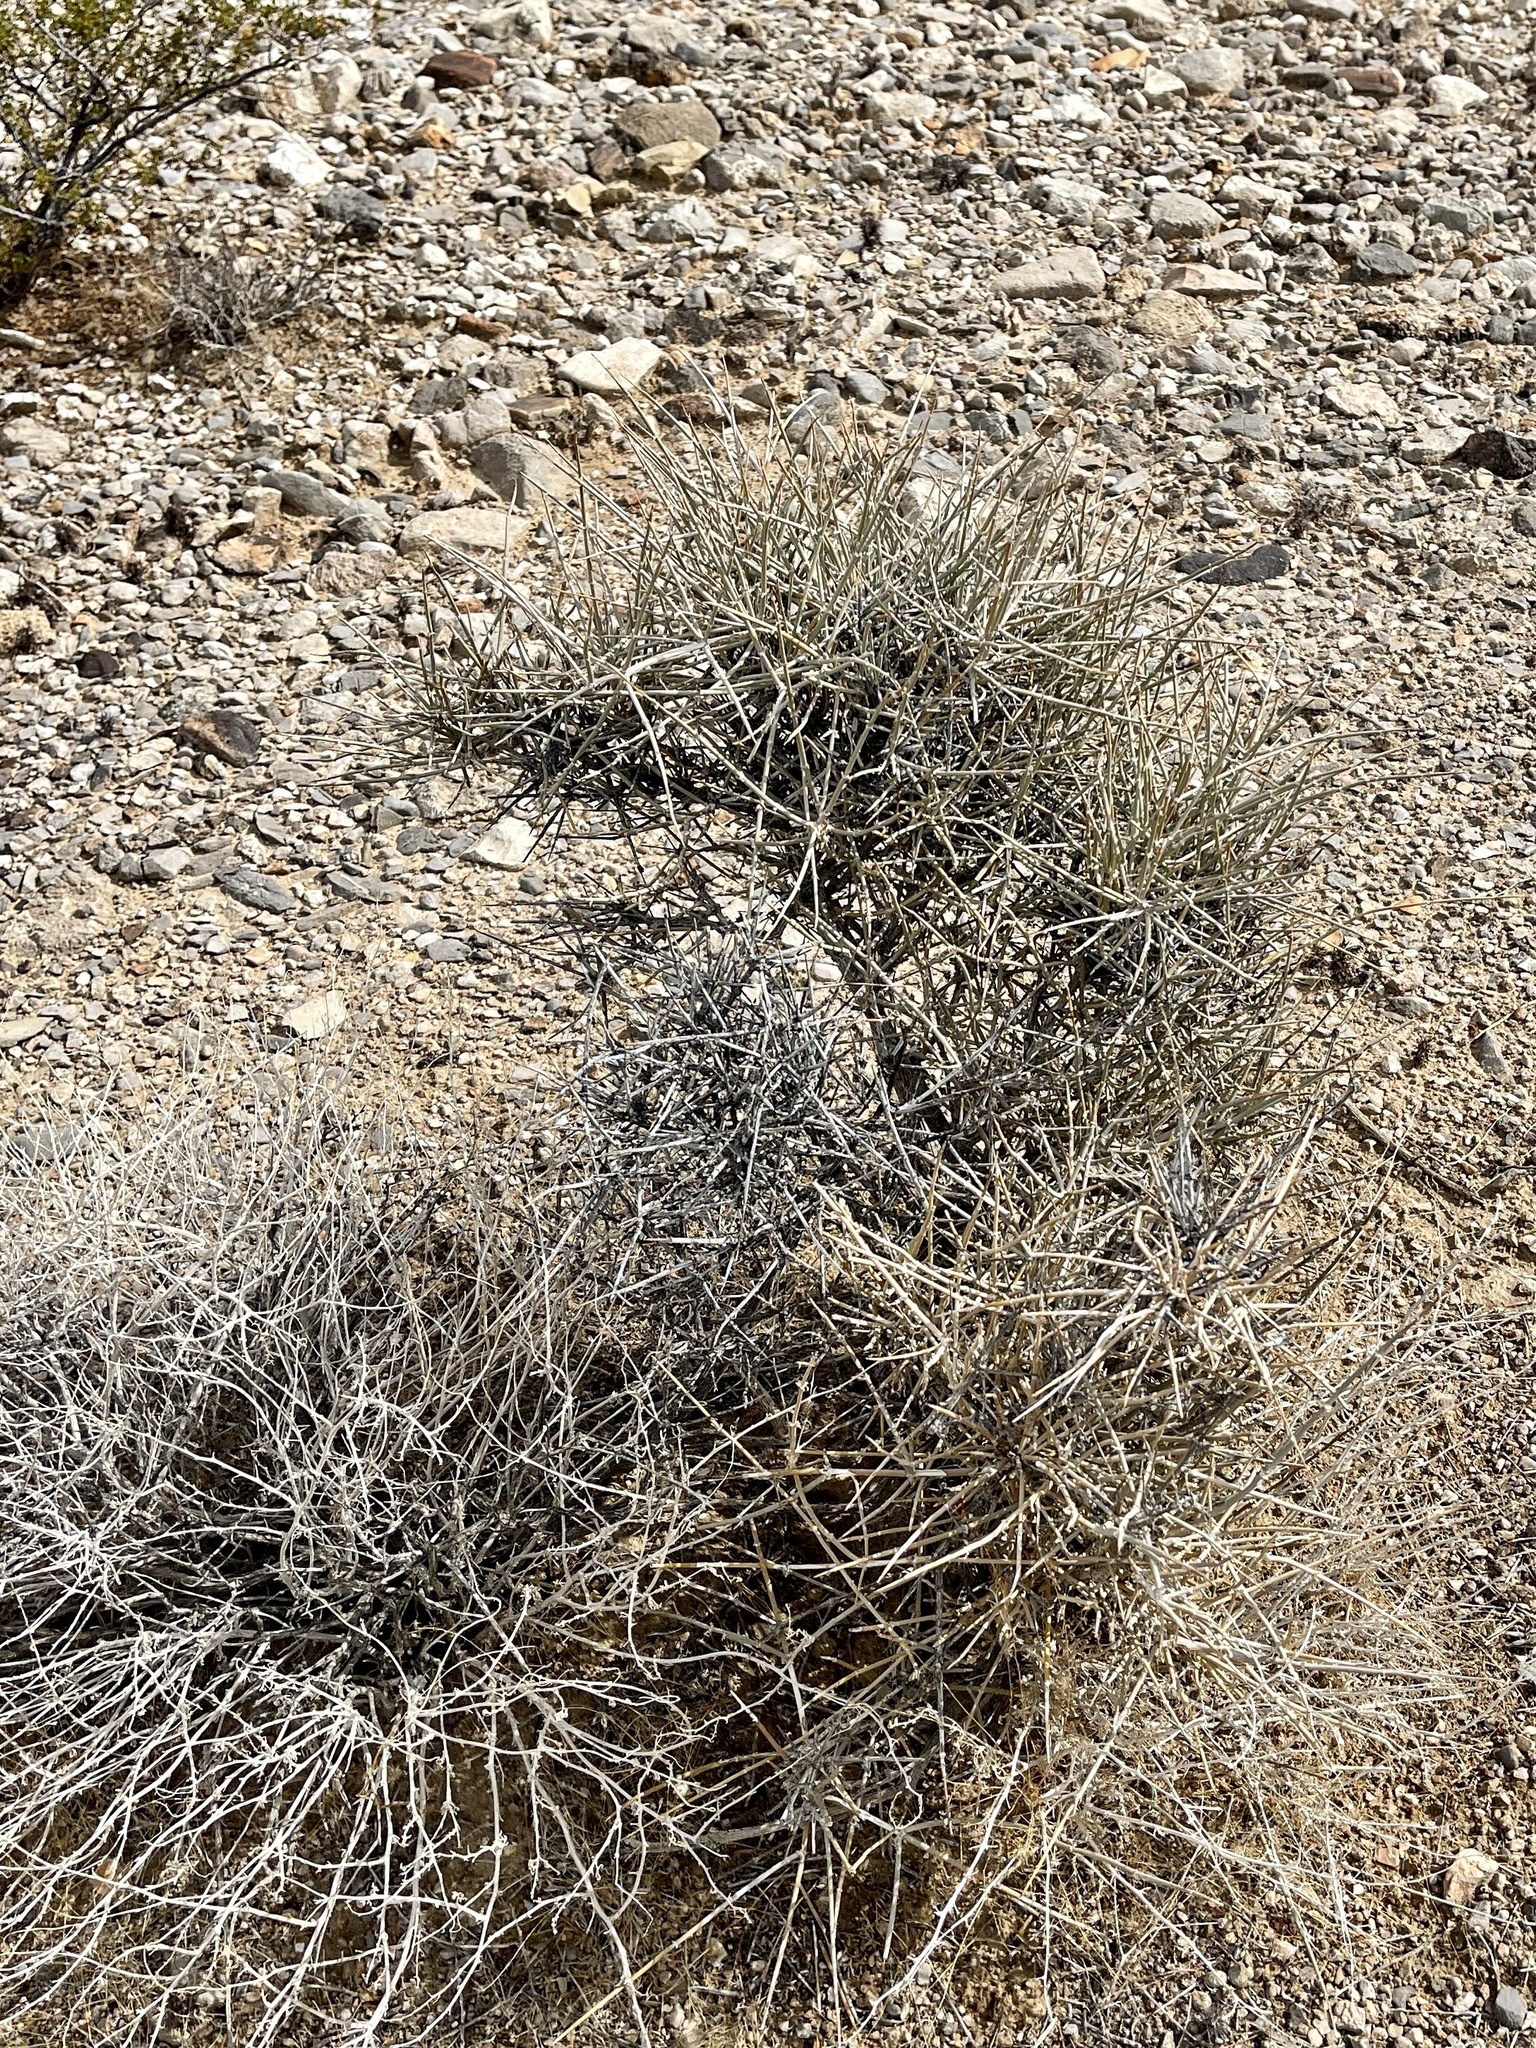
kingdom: Plantae
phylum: Tracheophyta
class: Gnetopsida
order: Ephedrales
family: Ephedraceae
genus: Ephedra
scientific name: Ephedra nevadensis
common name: Gray ephedra
